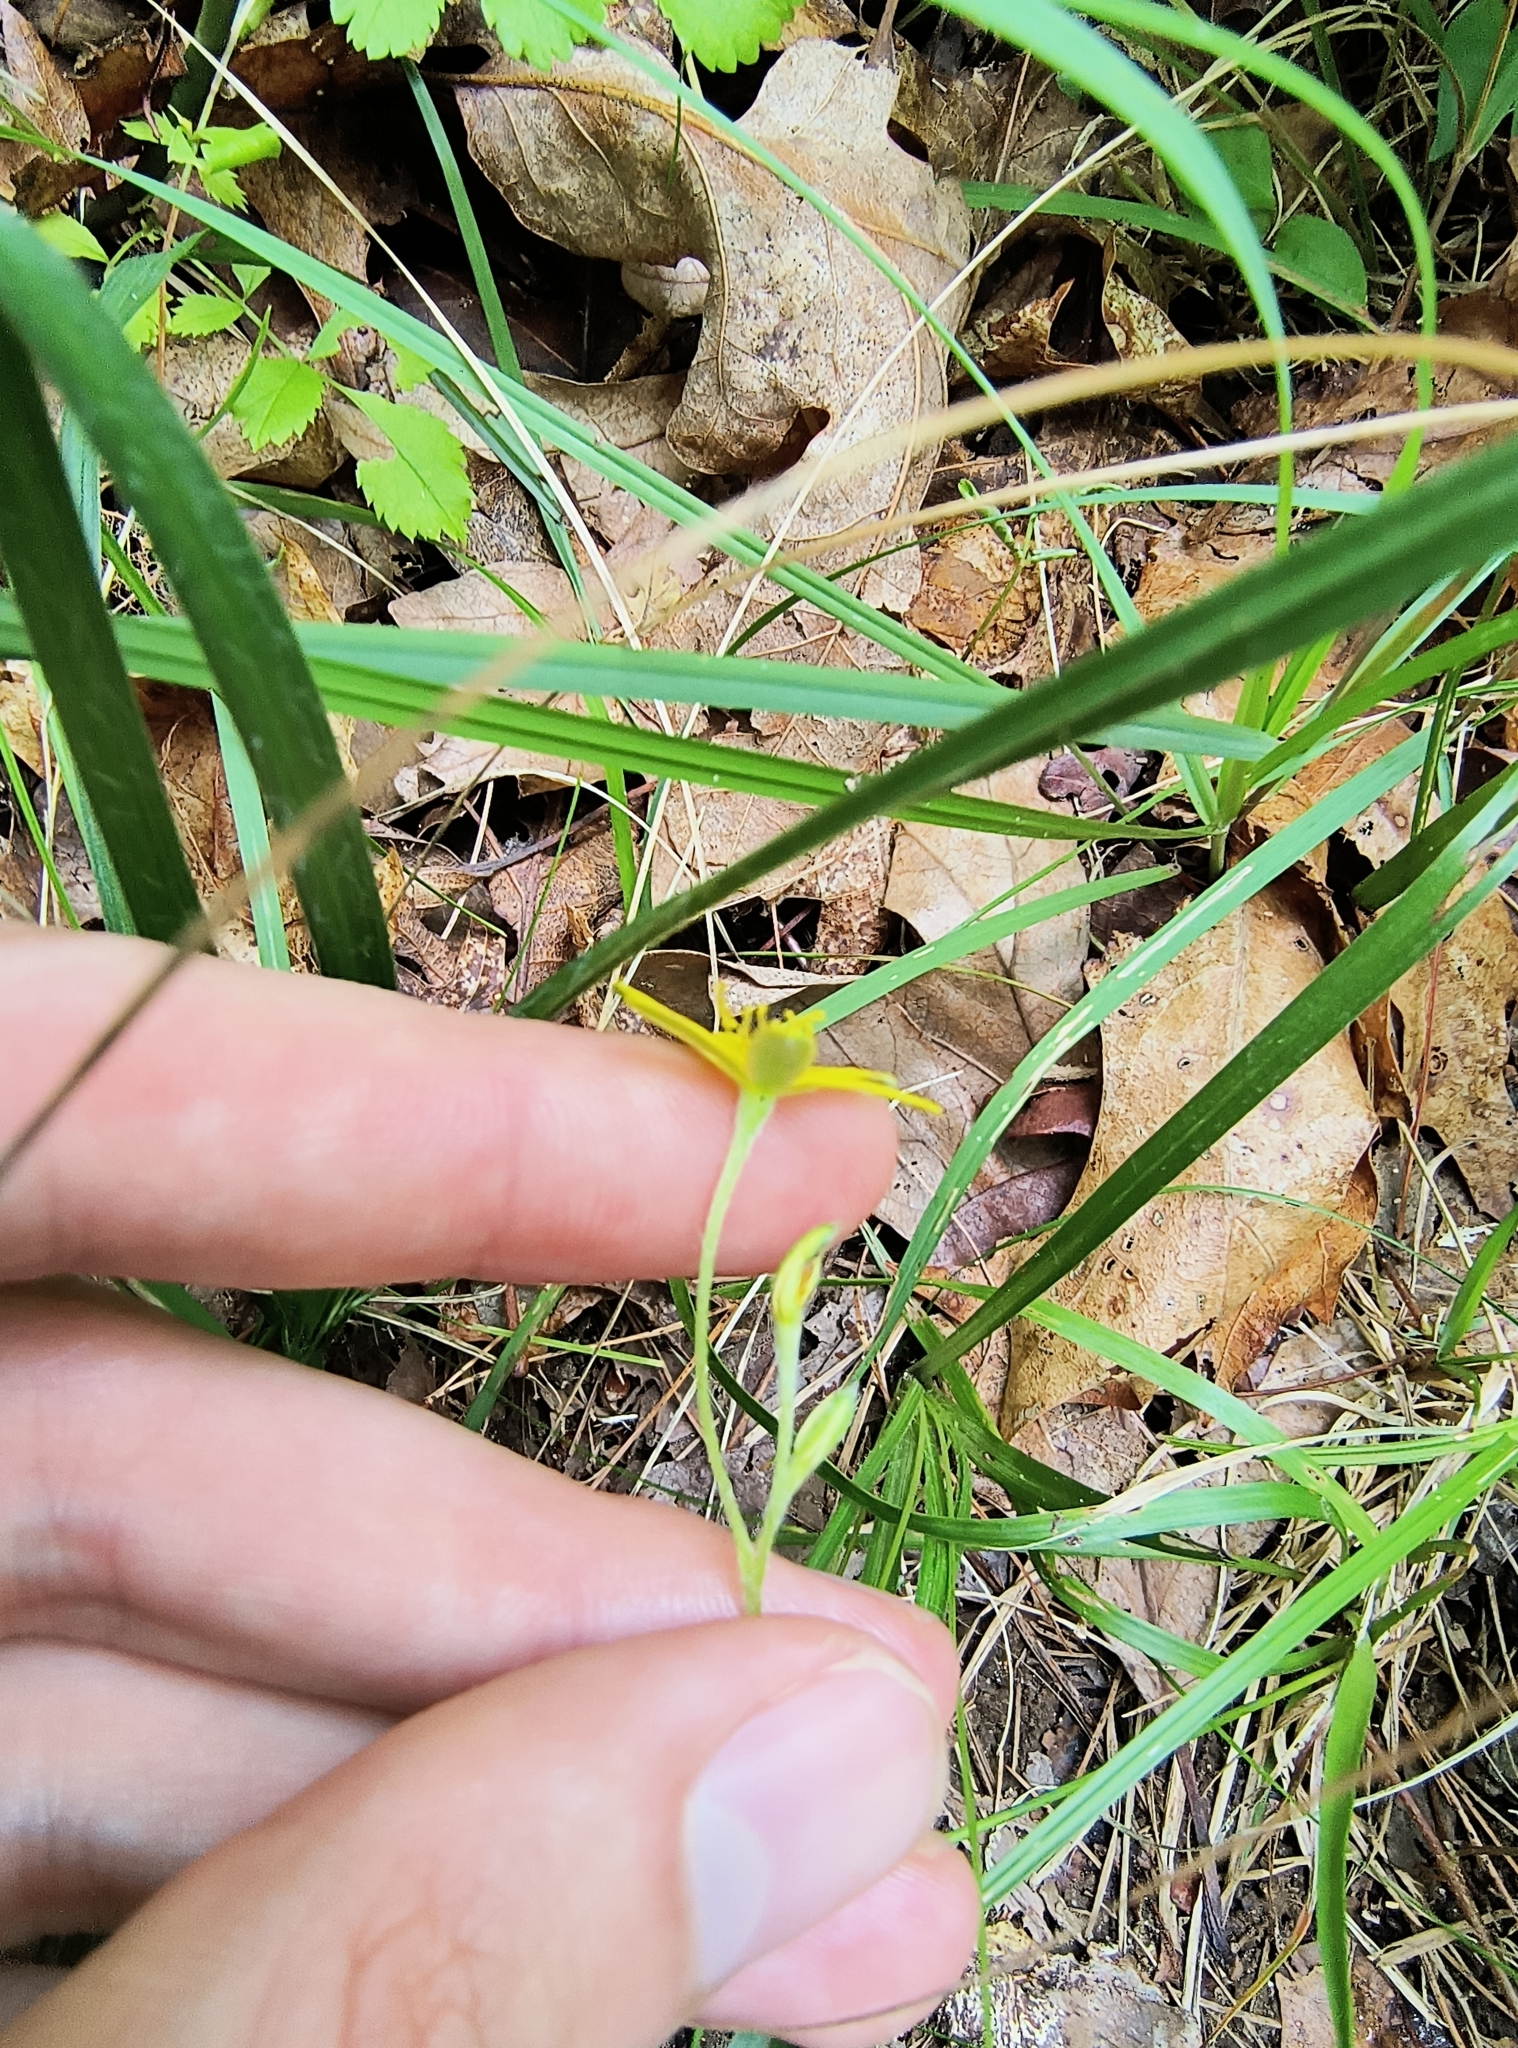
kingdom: Plantae
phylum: Tracheophyta
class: Liliopsida
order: Asparagales
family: Hypoxidaceae
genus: Hypoxis
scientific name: Hypoxis hirsuta
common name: Common goldstar
